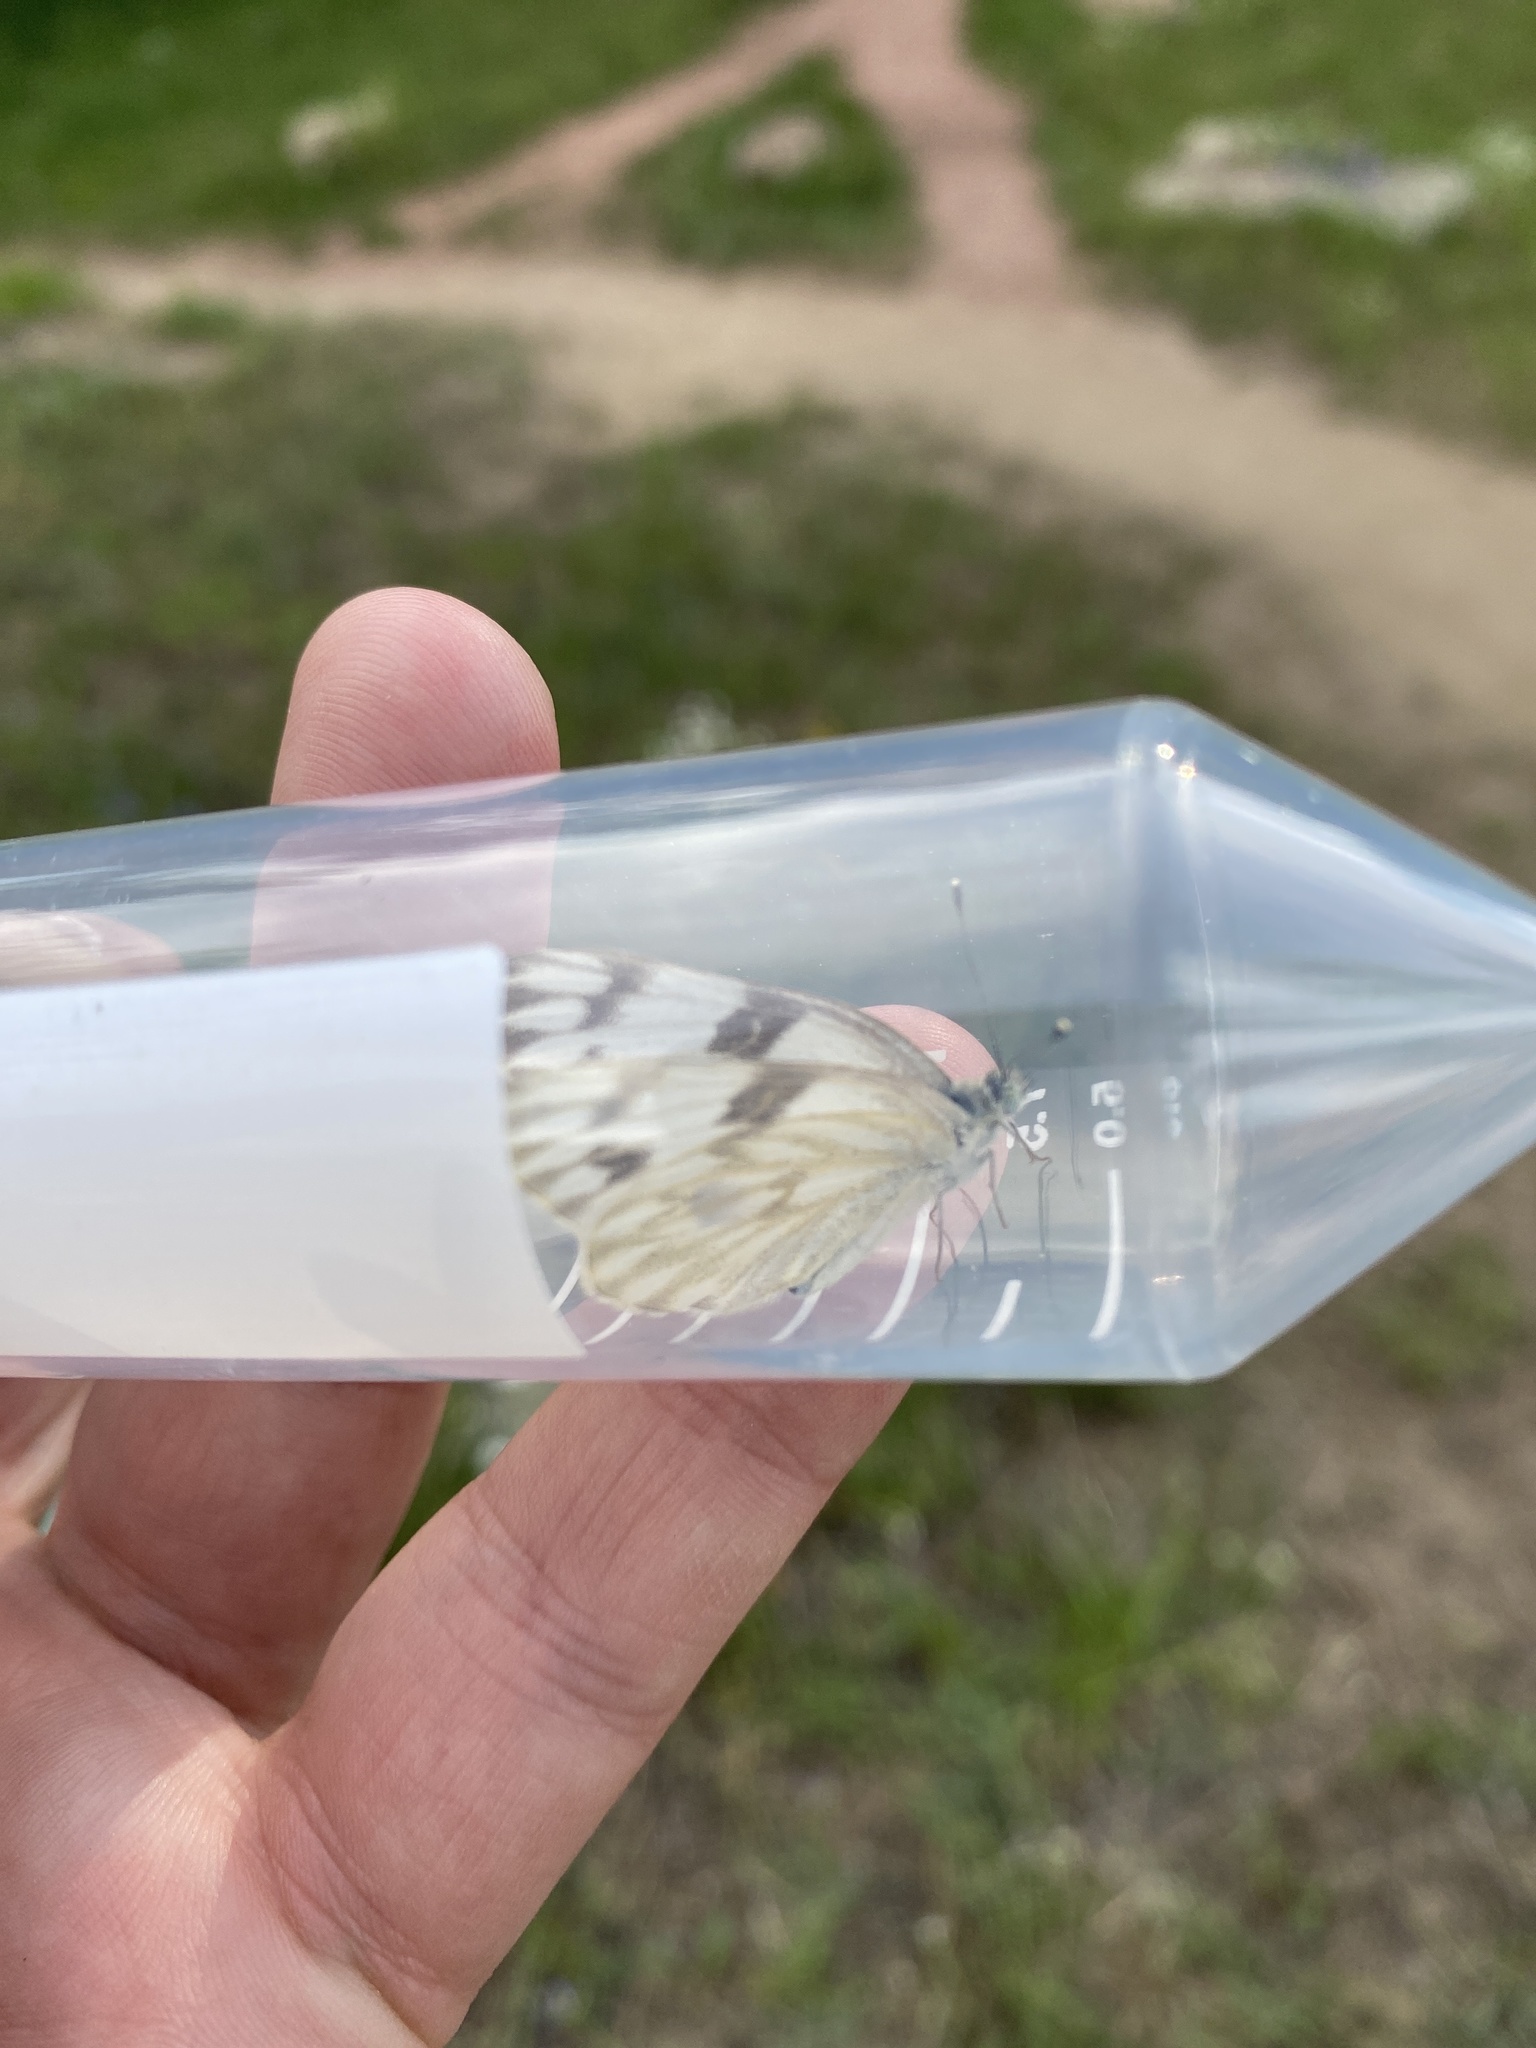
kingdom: Animalia
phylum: Arthropoda
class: Insecta
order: Lepidoptera
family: Pieridae
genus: Pontia
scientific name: Pontia protodice
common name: Checkered white
